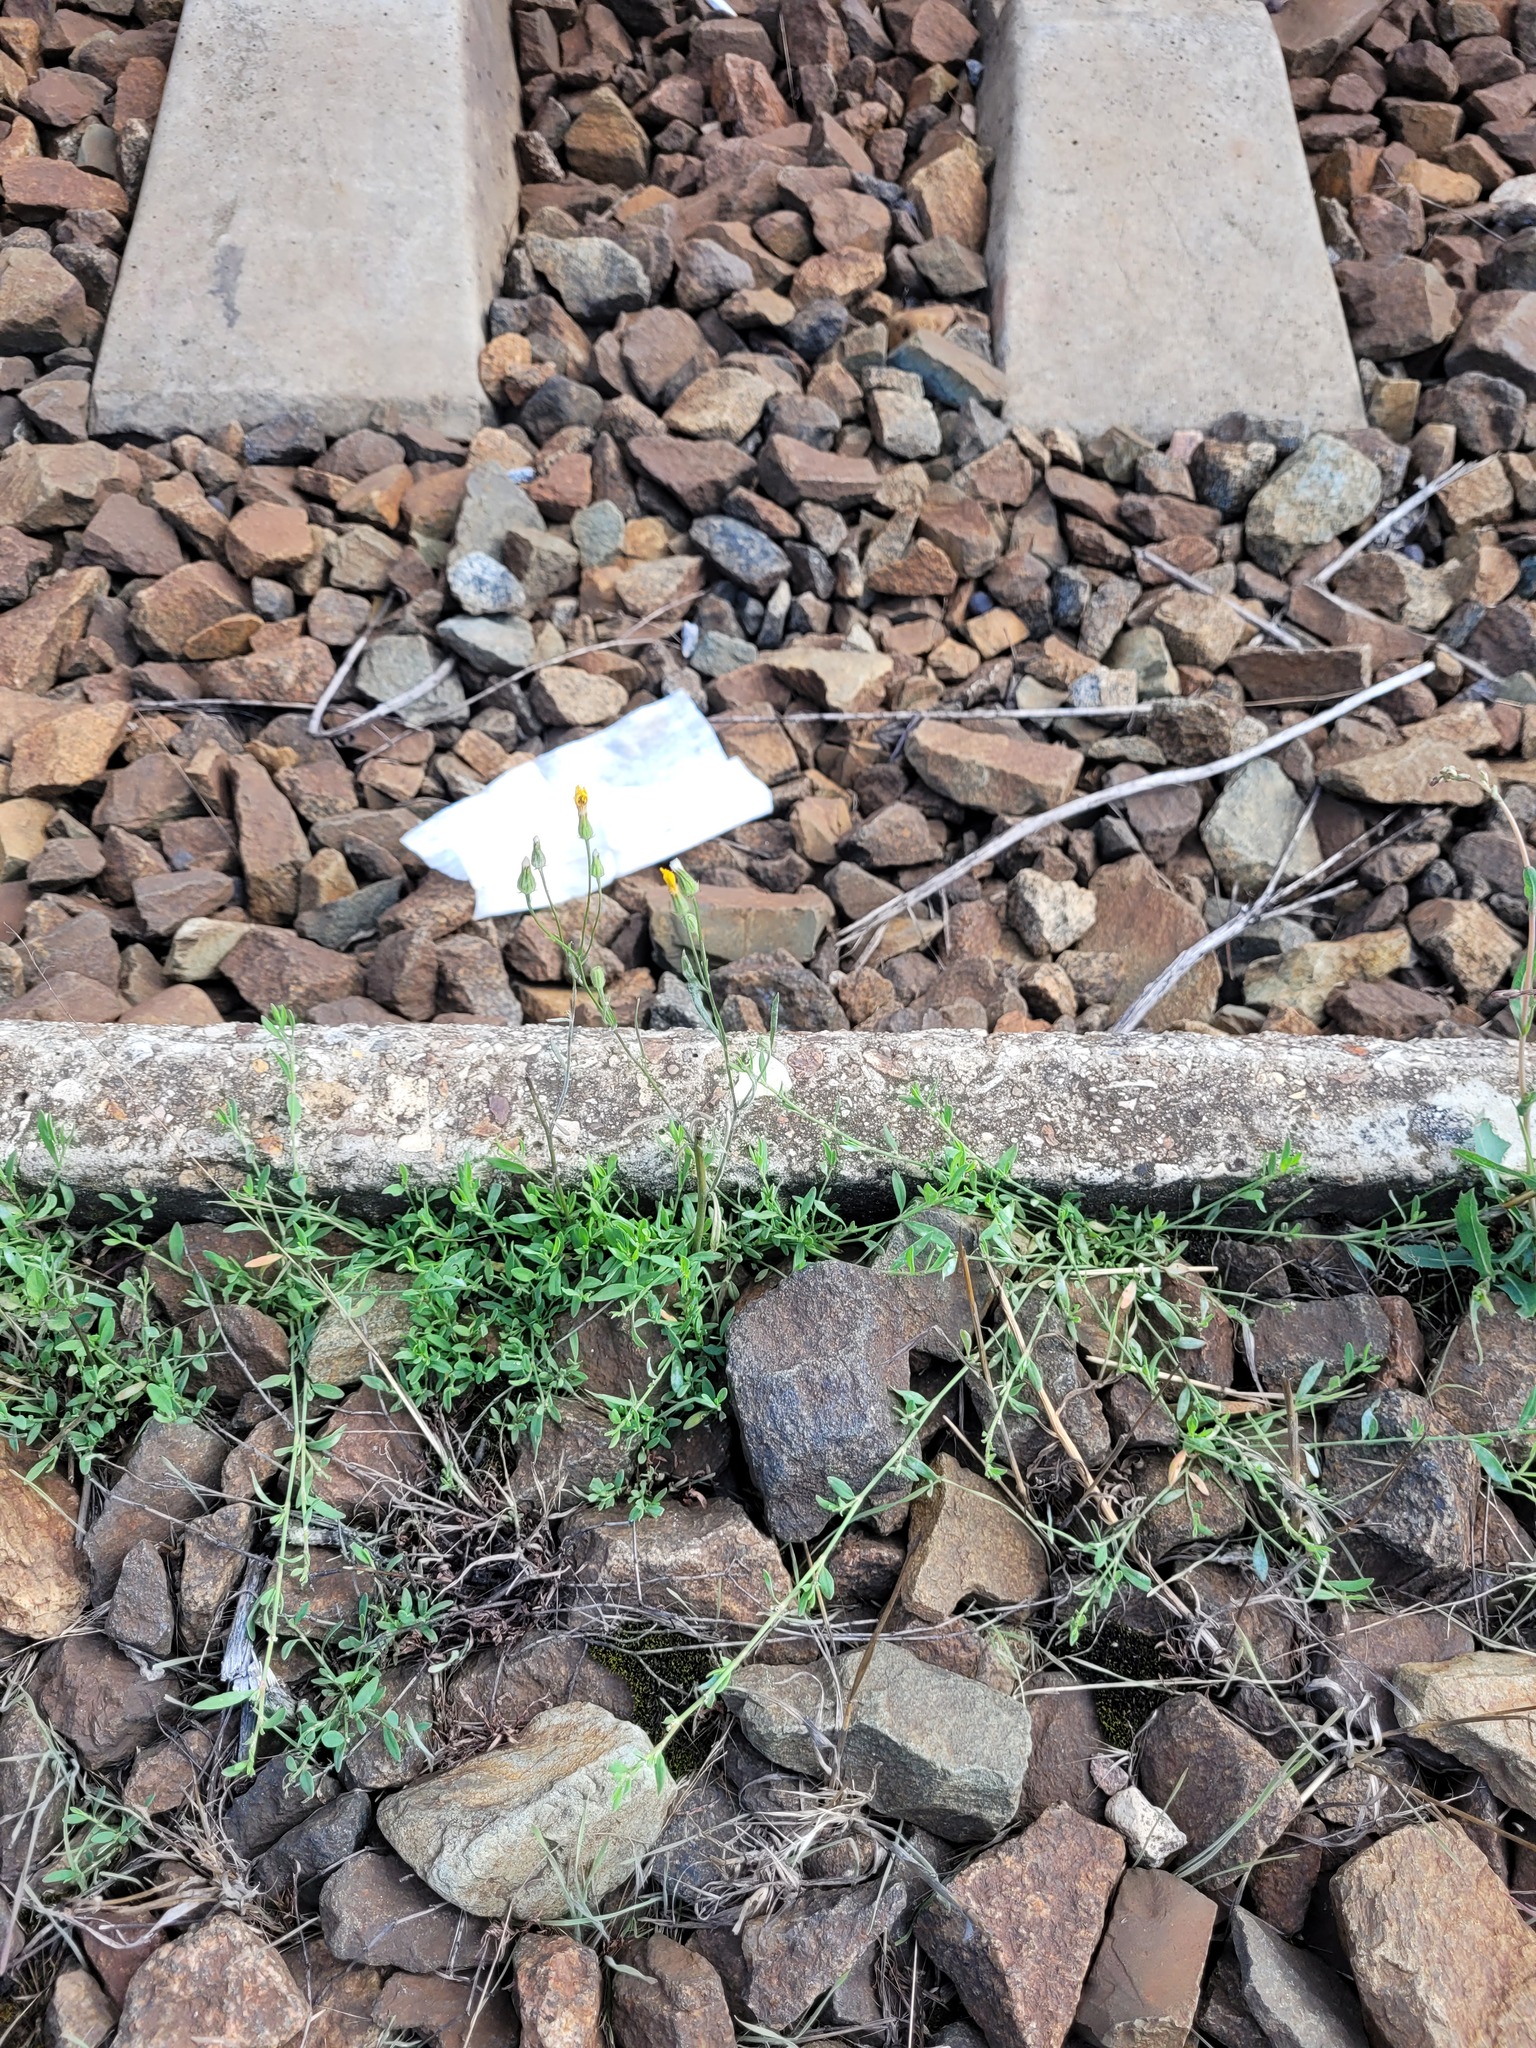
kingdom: Plantae
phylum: Tracheophyta
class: Magnoliopsida
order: Asterales
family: Asteraceae
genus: Crepis
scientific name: Crepis tectorum
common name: Narrow-leaved hawk's-beard
